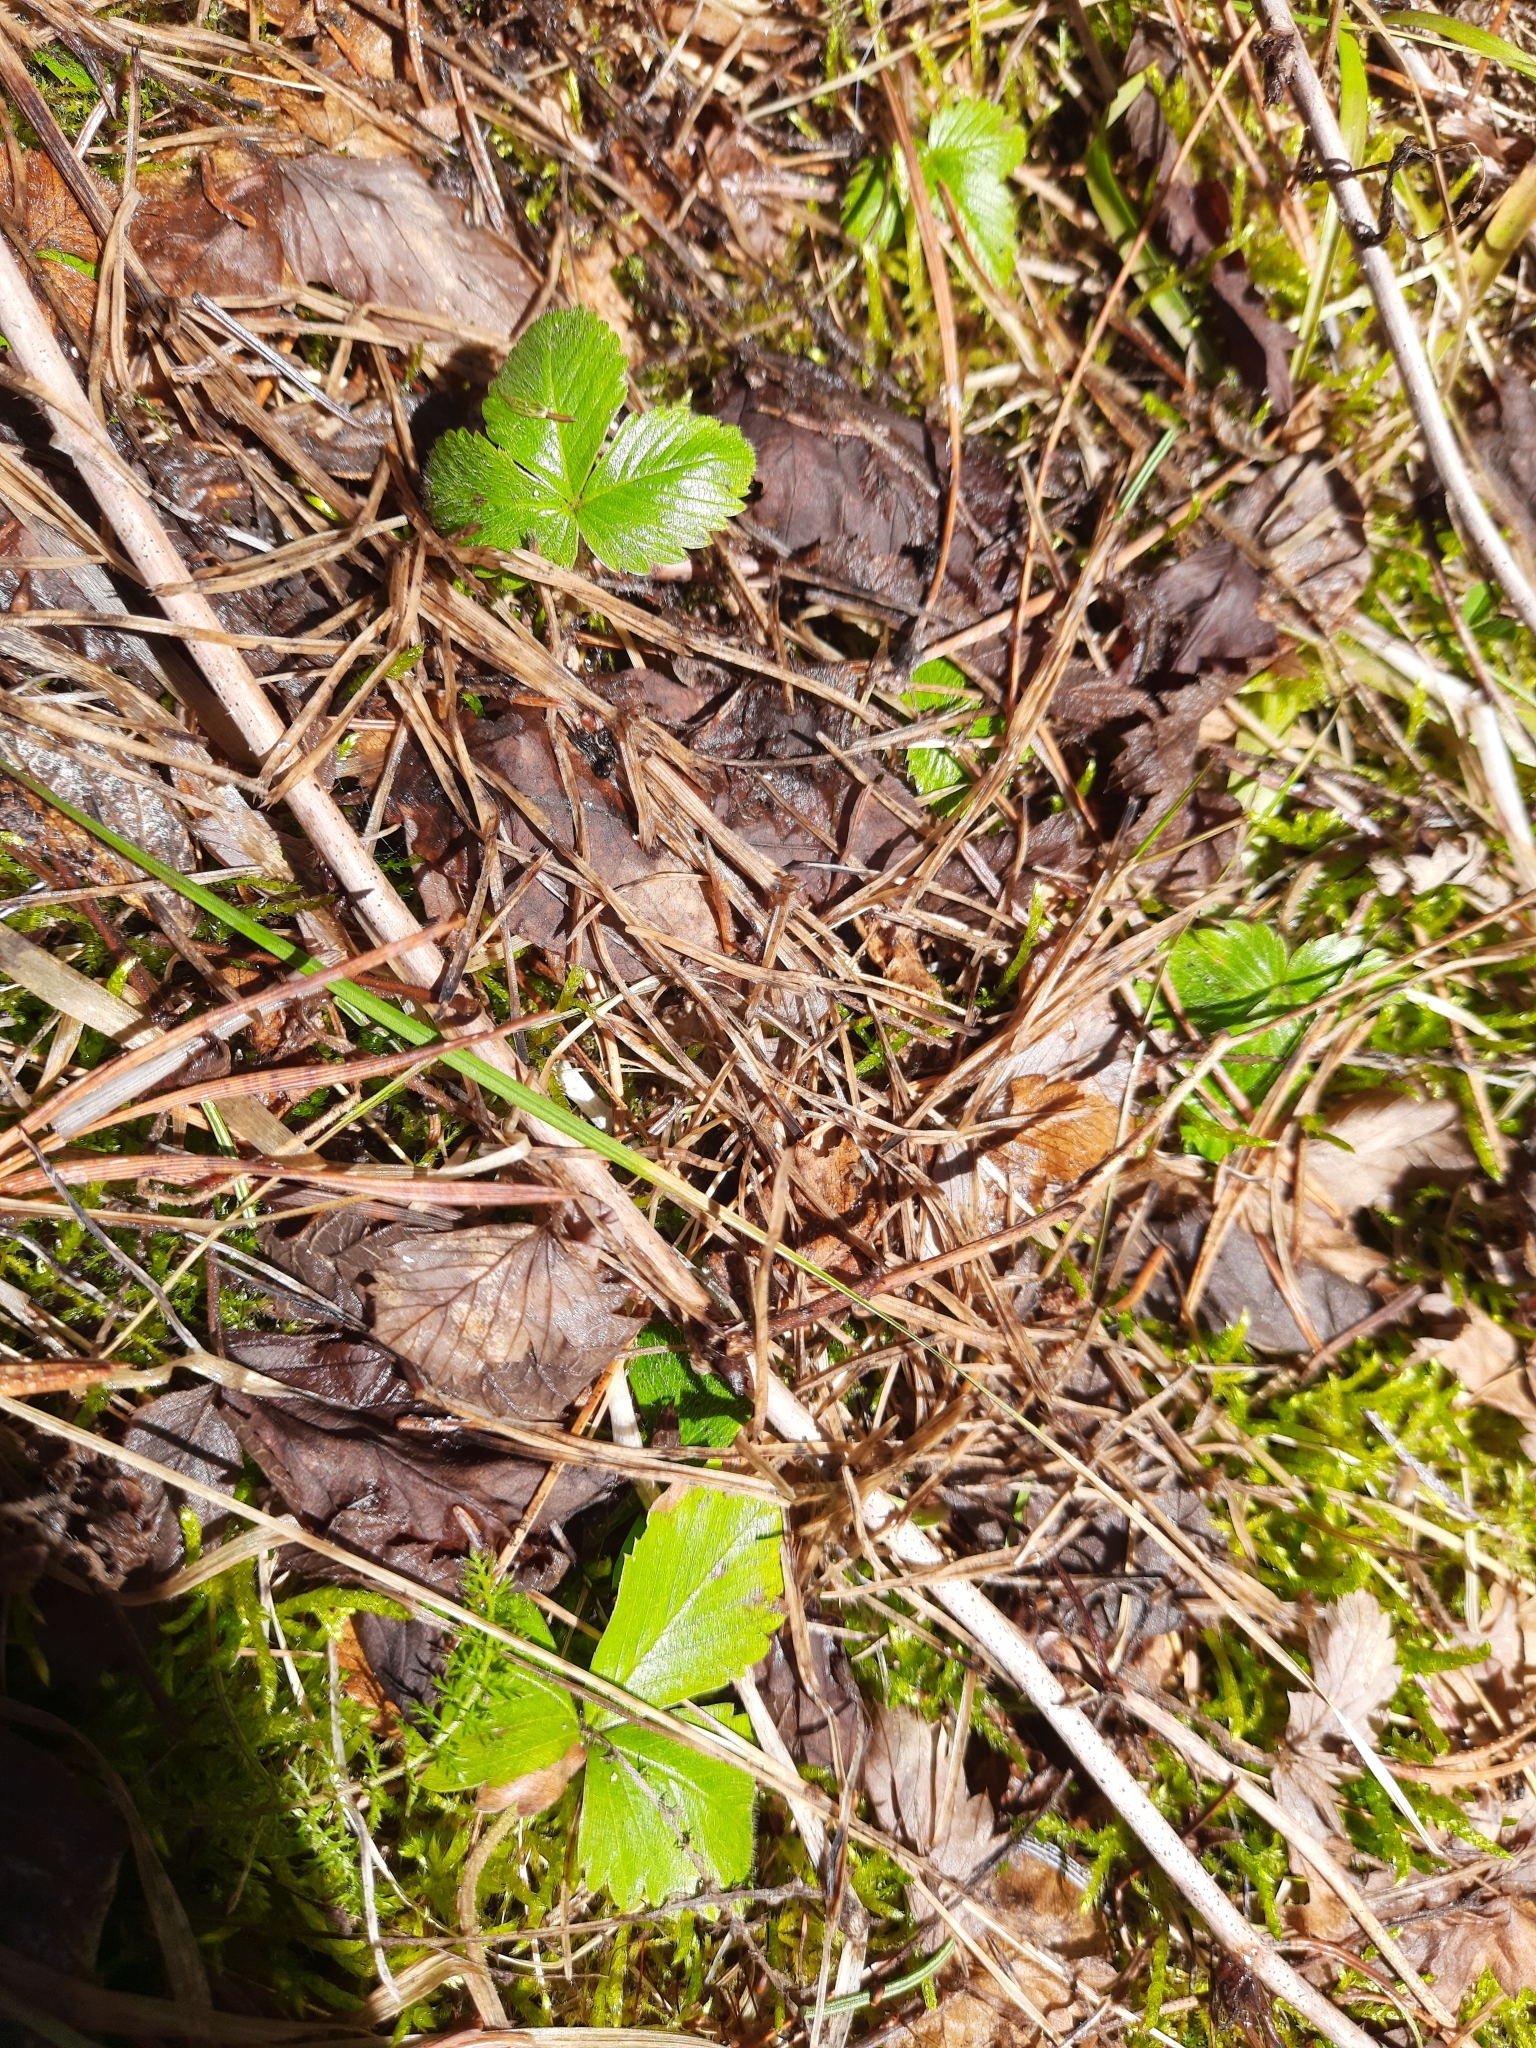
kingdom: Plantae
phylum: Tracheophyta
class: Magnoliopsida
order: Rosales
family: Rosaceae
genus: Fragaria
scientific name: Fragaria vesca
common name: Wild strawberry
